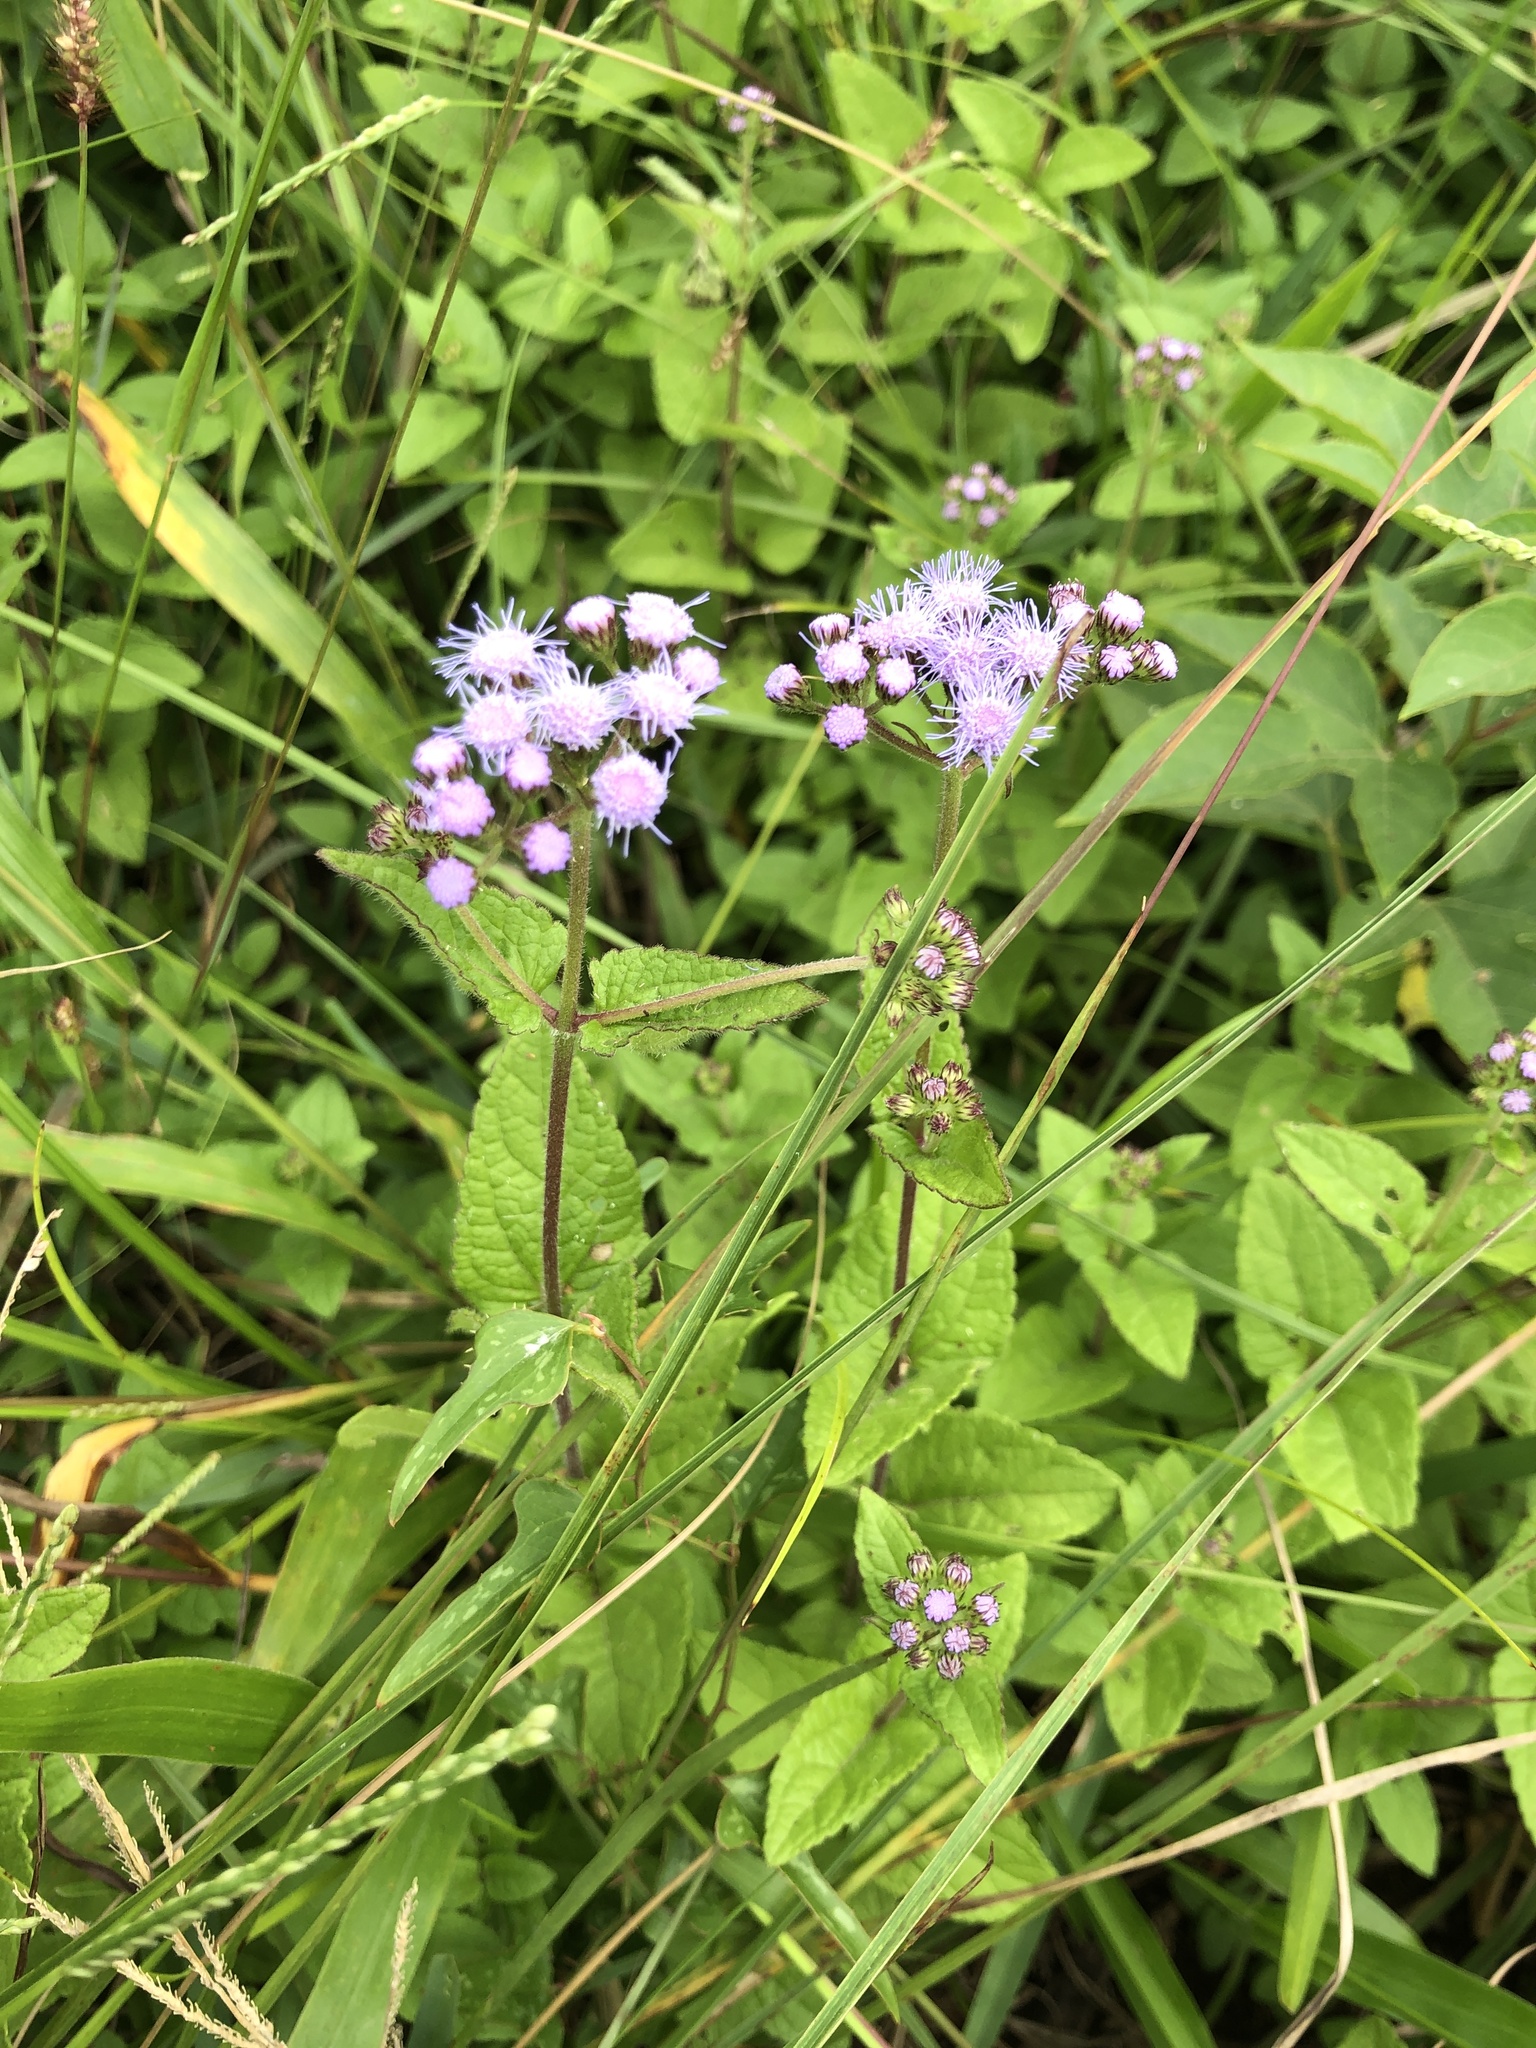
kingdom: Plantae
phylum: Tracheophyta
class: Magnoliopsida
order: Asterales
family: Asteraceae
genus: Conoclinium
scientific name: Conoclinium coelestinum
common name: Blue mistflower
